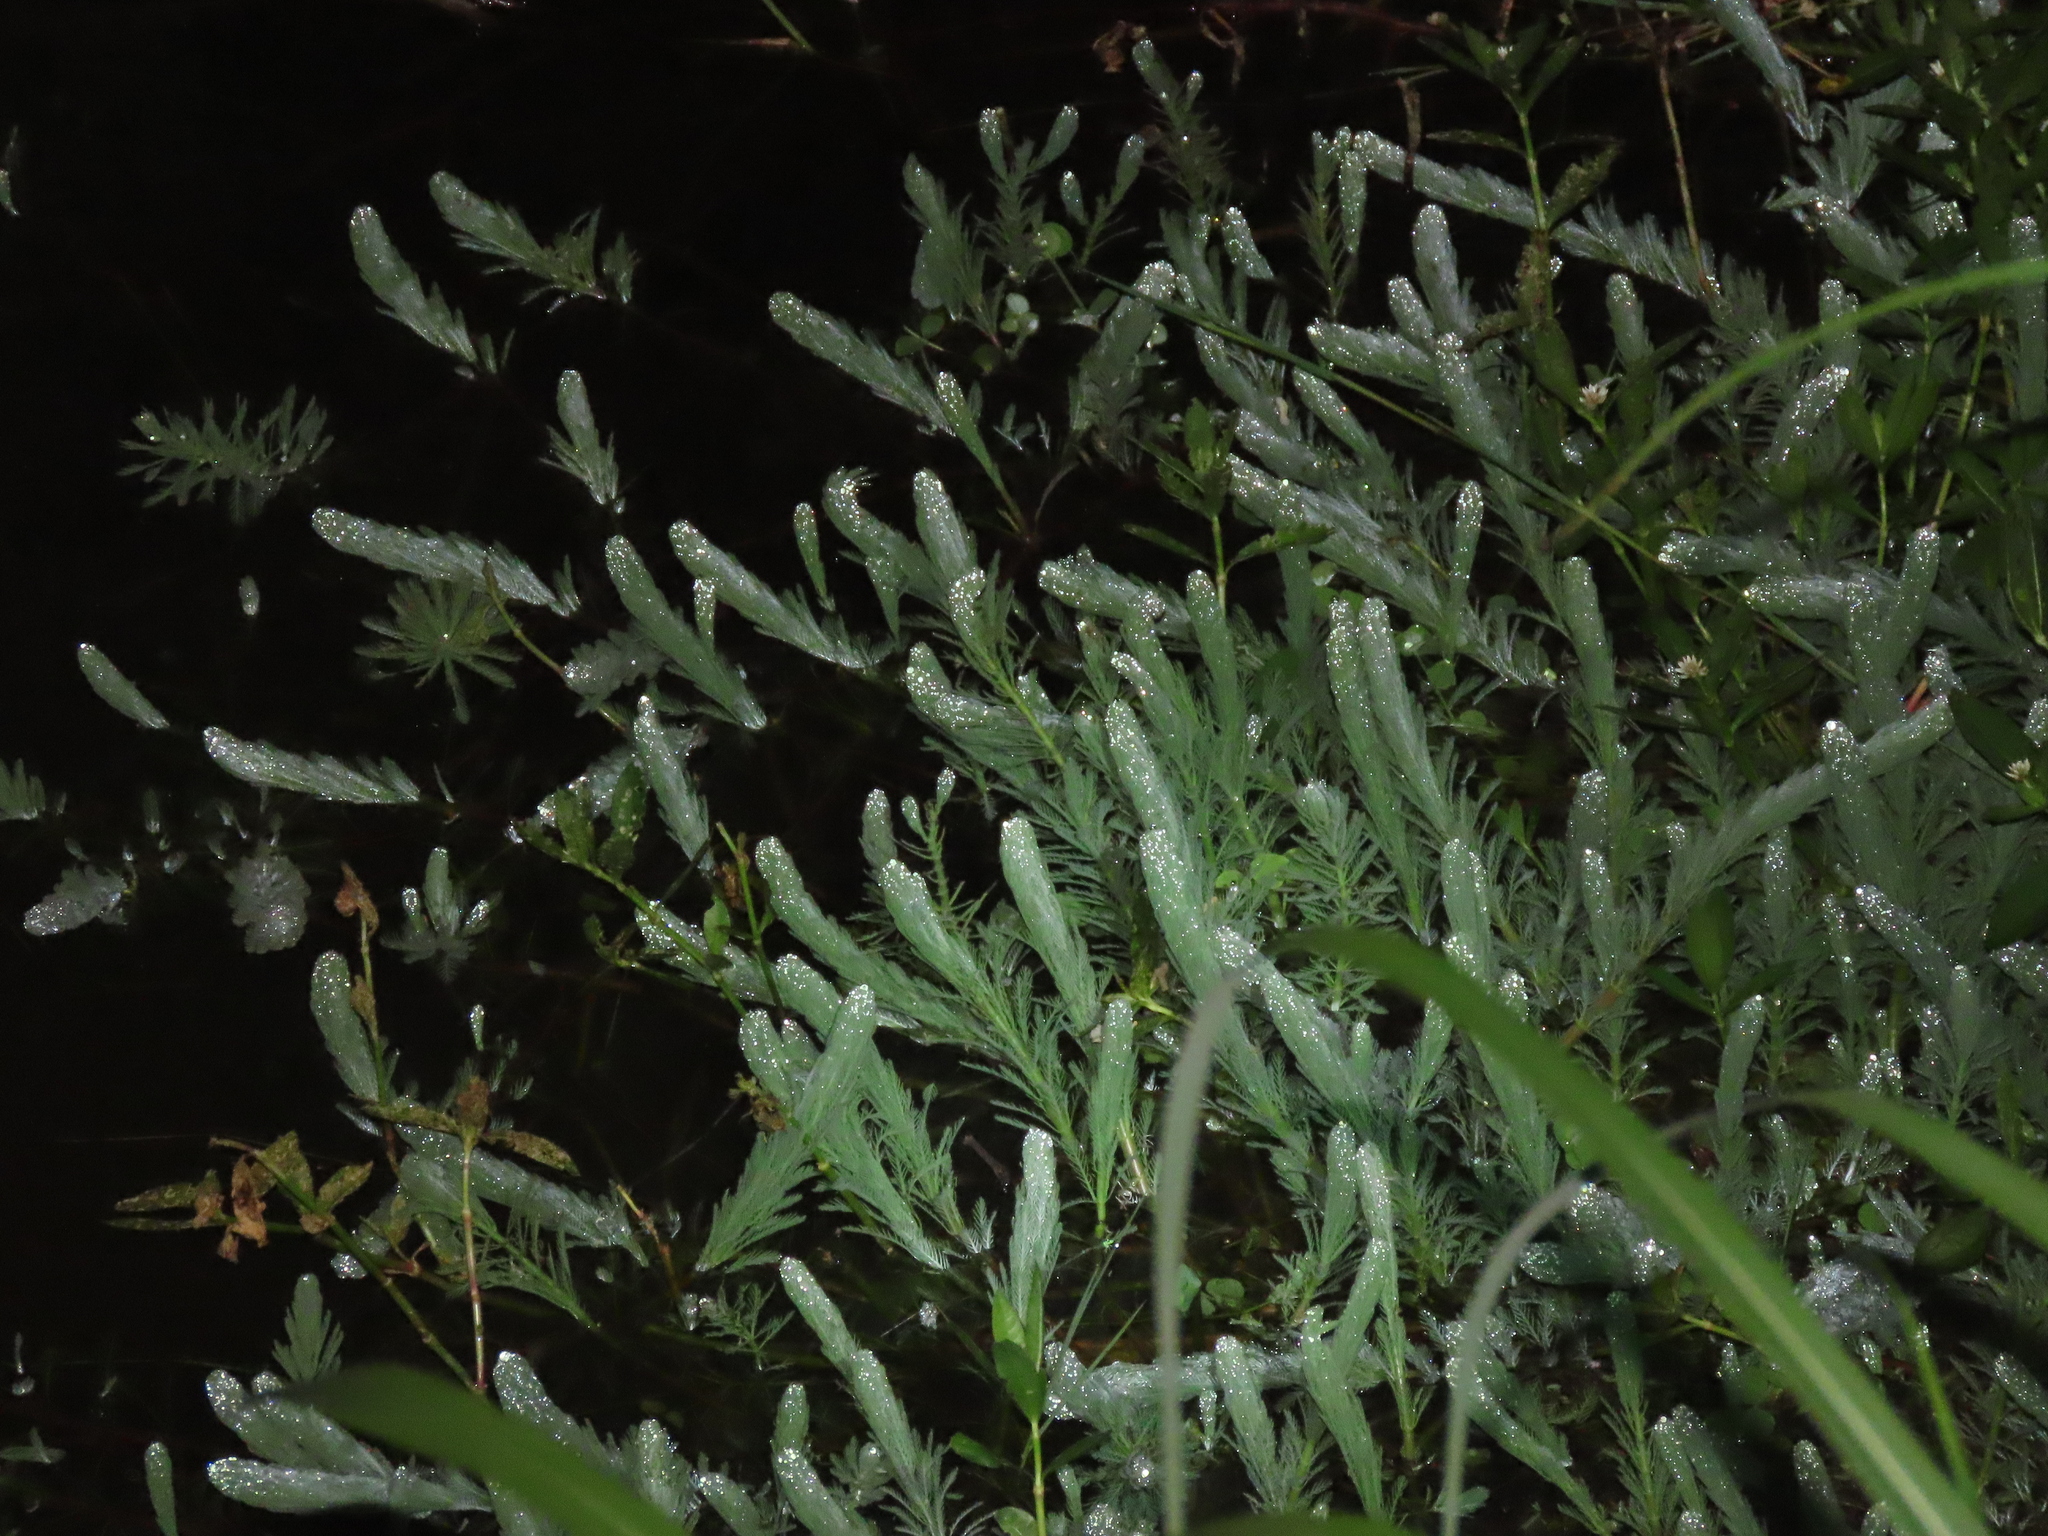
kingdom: Plantae
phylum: Tracheophyta
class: Magnoliopsida
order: Saxifragales
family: Haloragaceae
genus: Myriophyllum
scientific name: Myriophyllum aquaticum
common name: Parrot's feather
